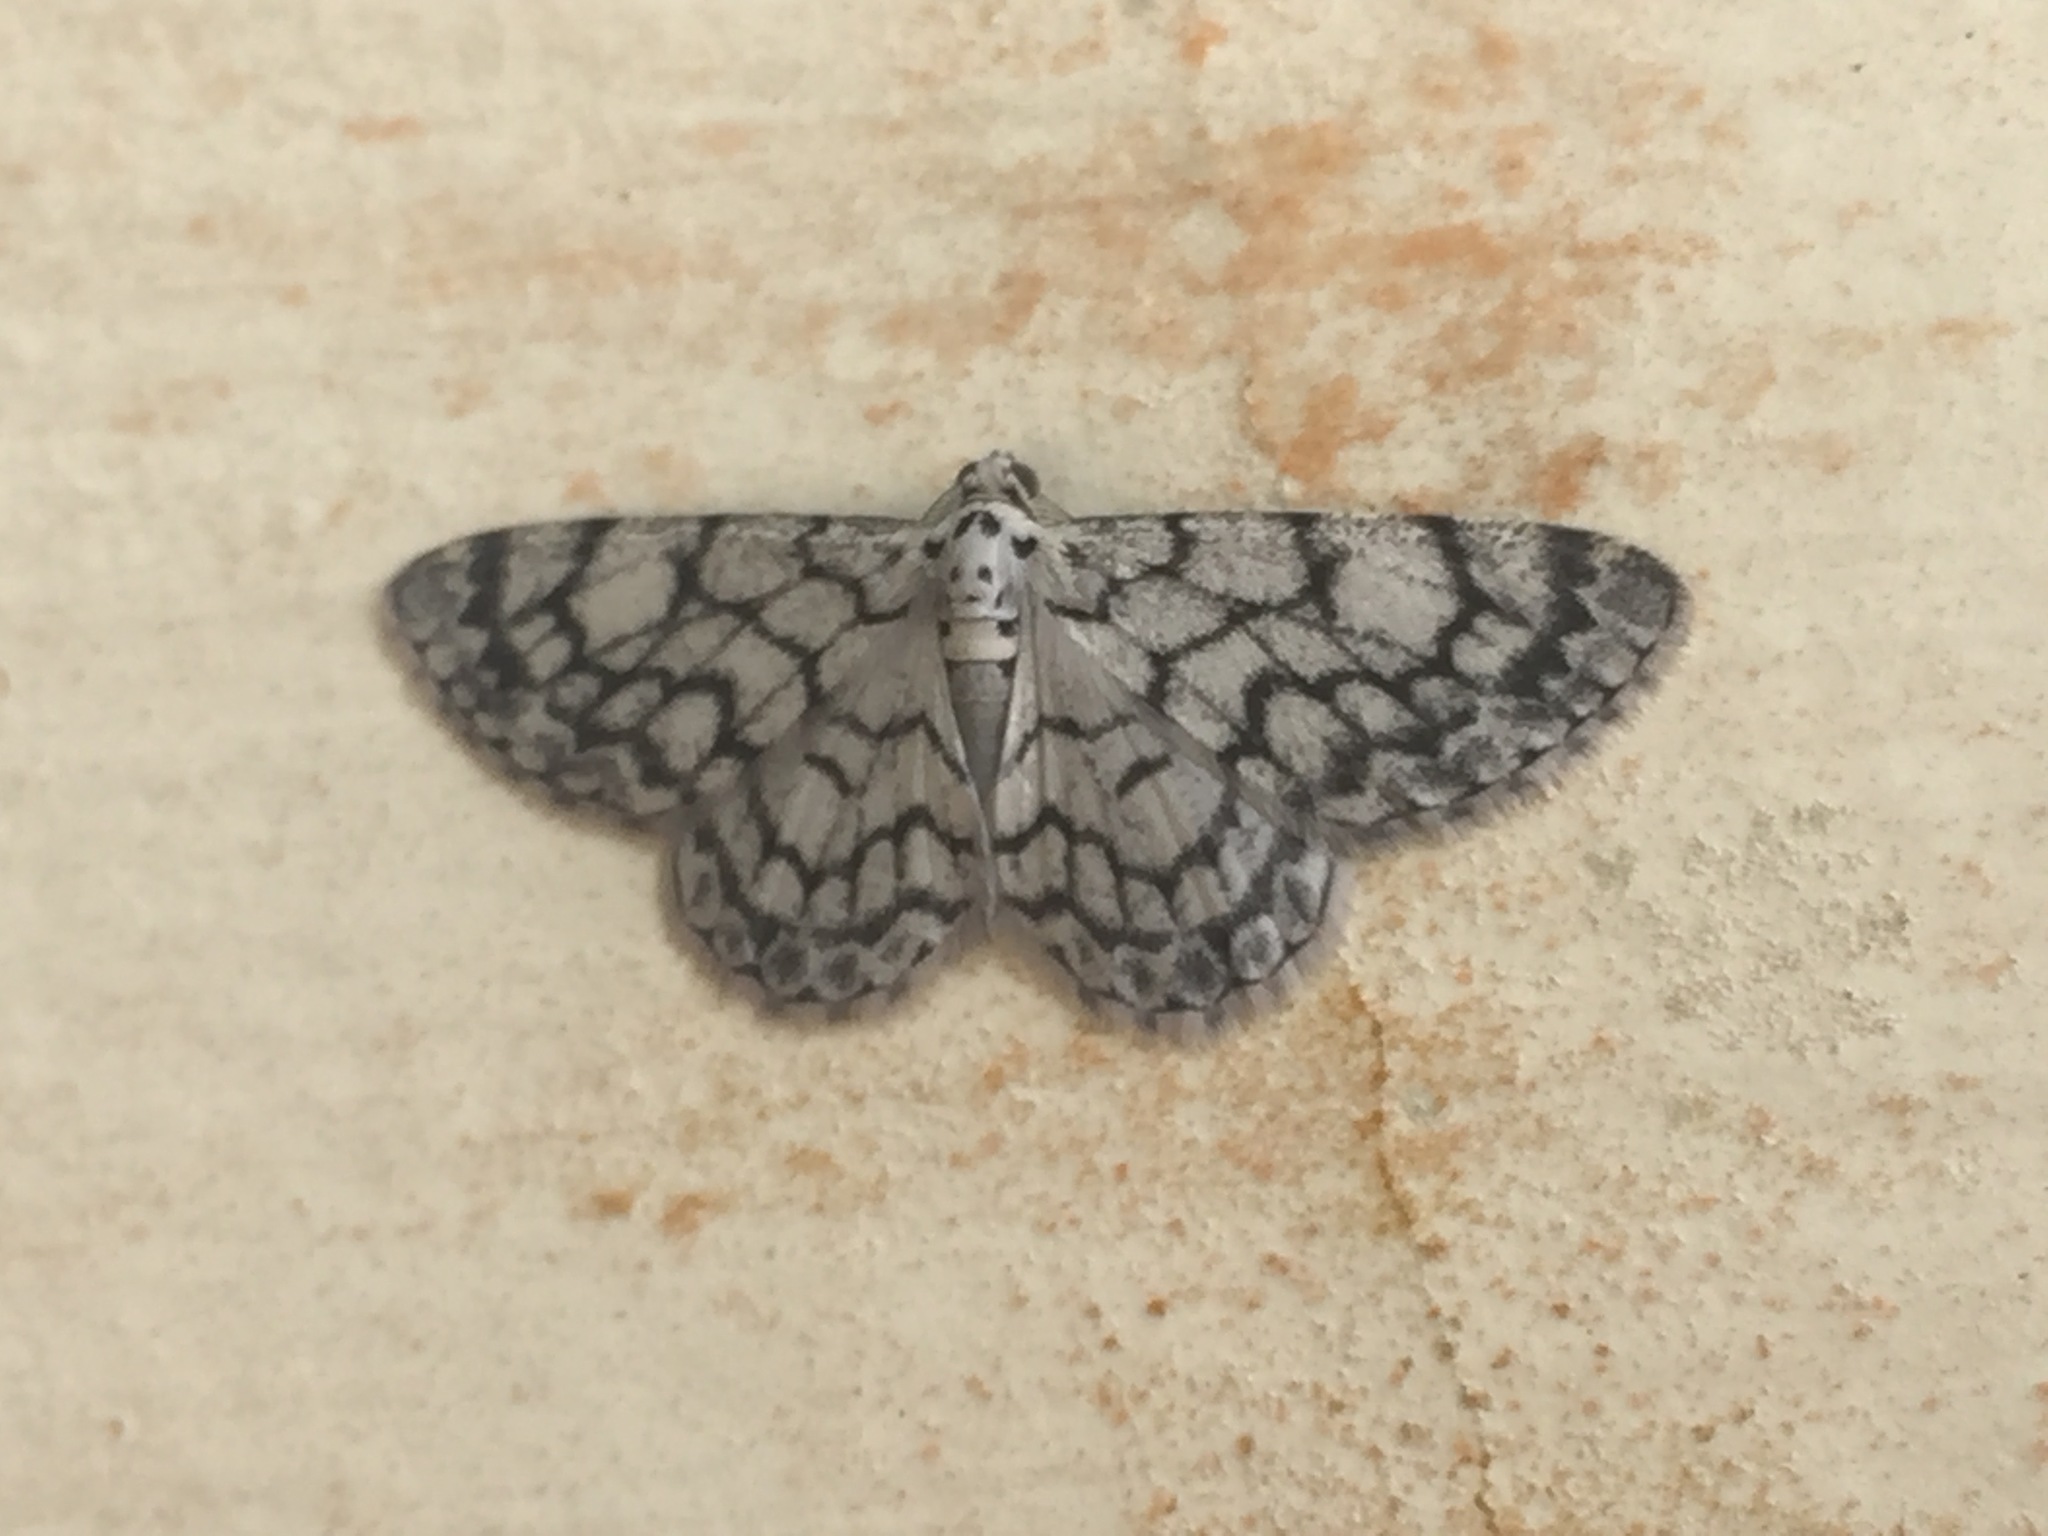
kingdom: Animalia
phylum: Arthropoda
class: Insecta
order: Lepidoptera
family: Geometridae
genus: Hymenomima
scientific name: Hymenomima camerata
